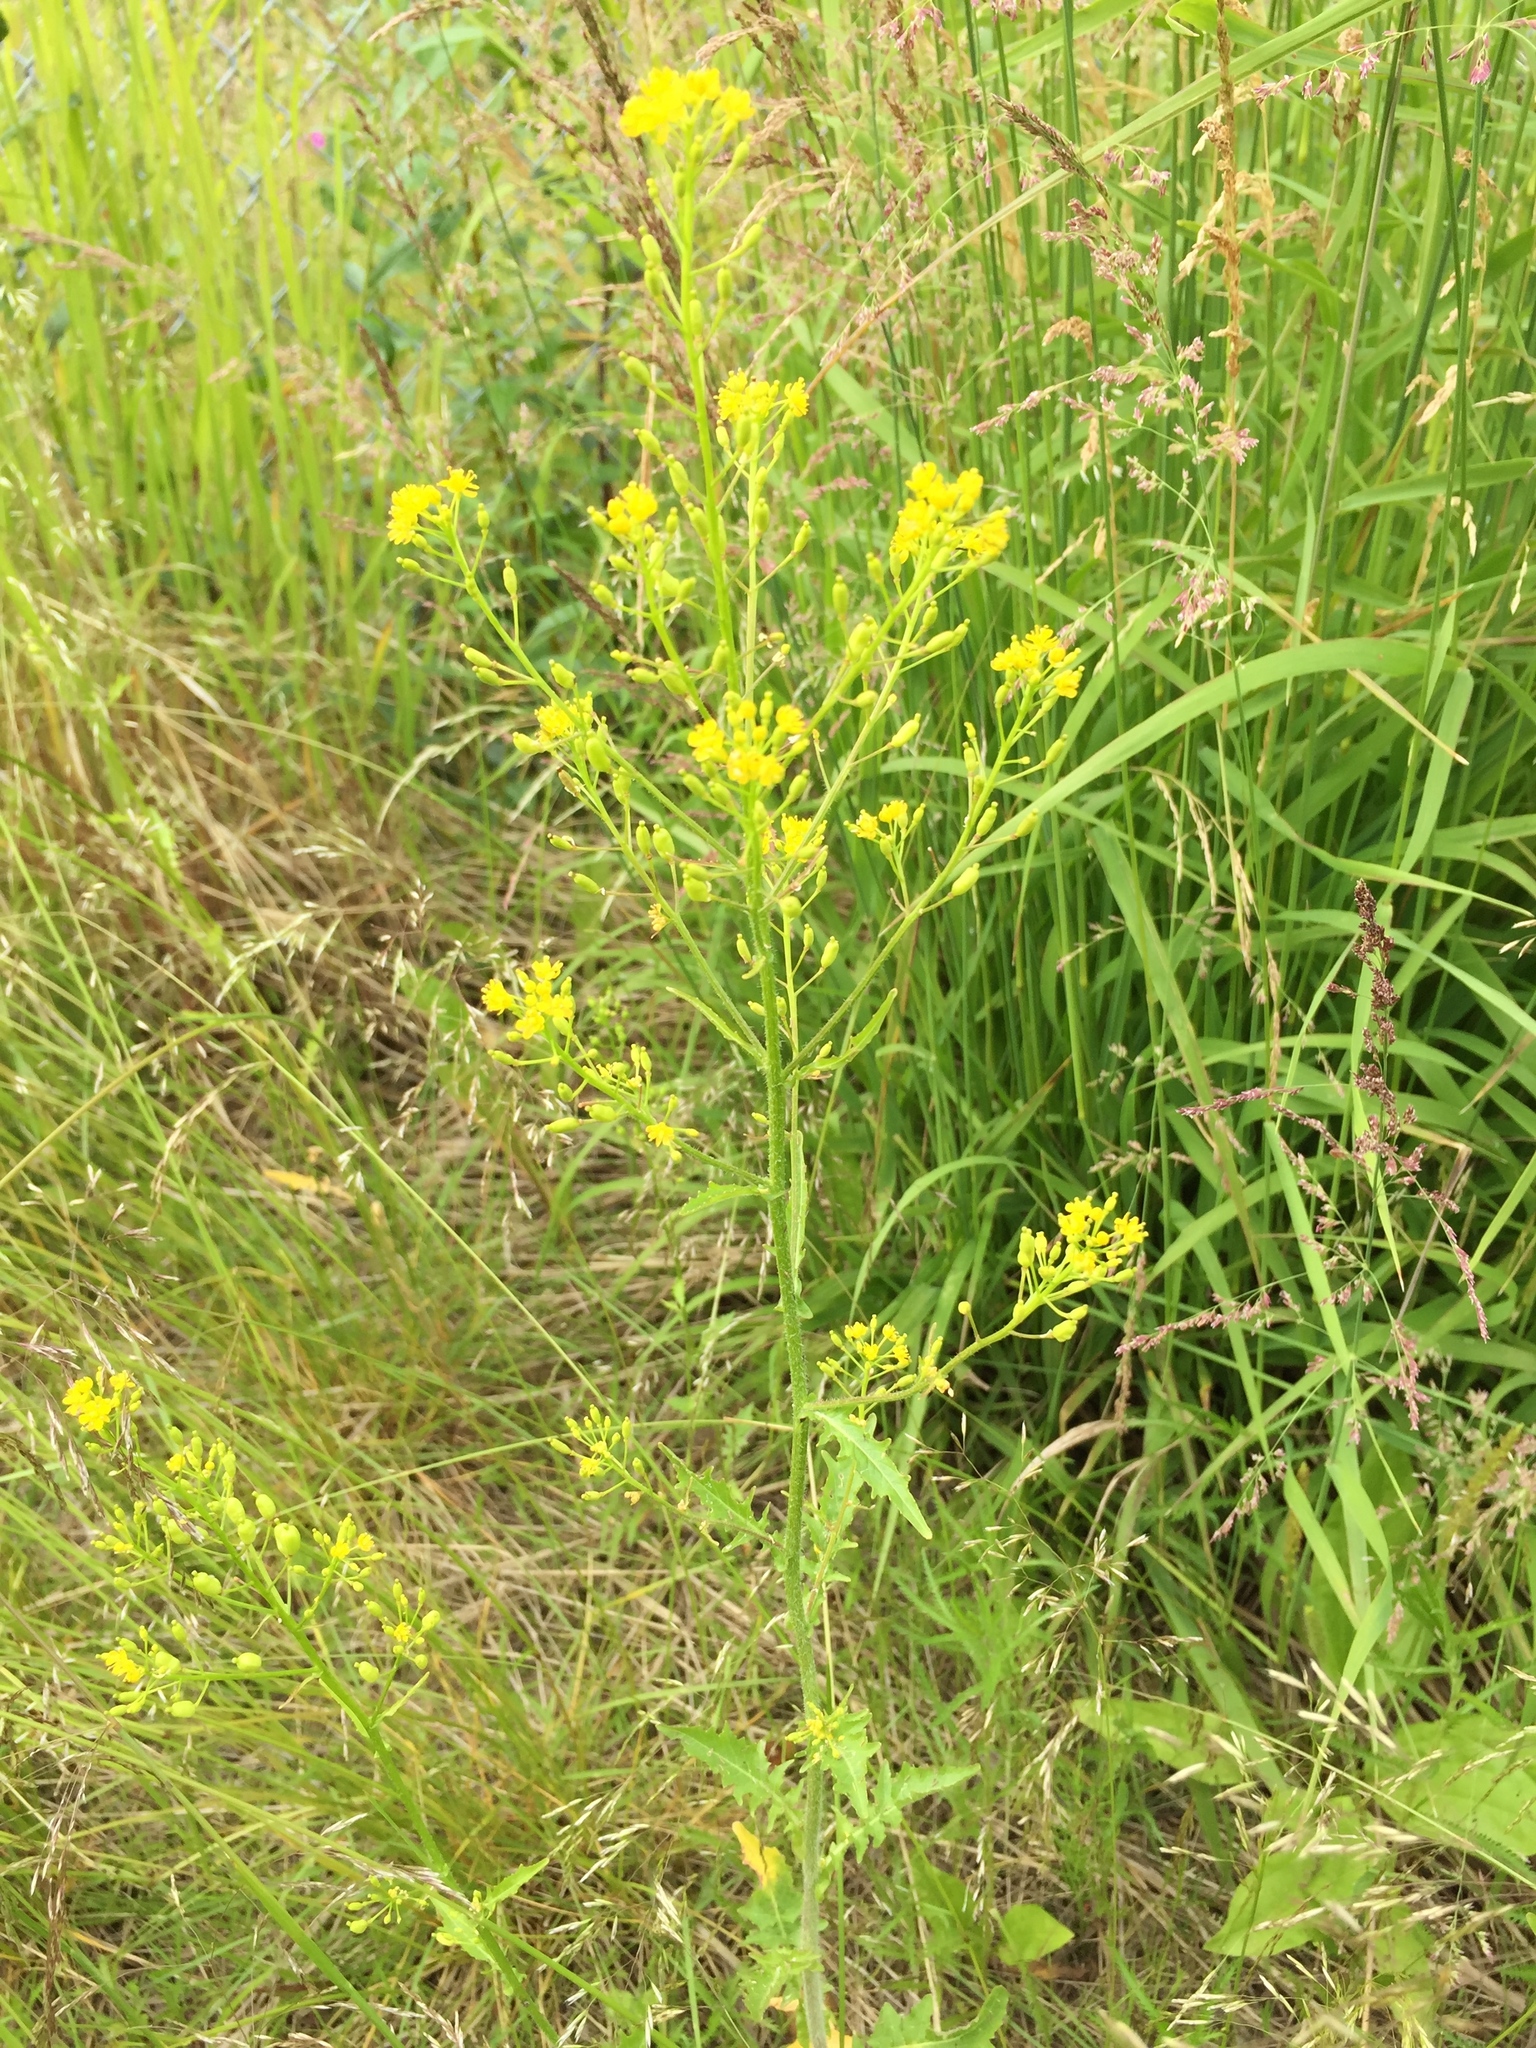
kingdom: Plantae
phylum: Tracheophyta
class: Magnoliopsida
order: Brassicales
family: Brassicaceae
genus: Rorippa
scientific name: Rorippa barbareifolia
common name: Hoary yellowcress
